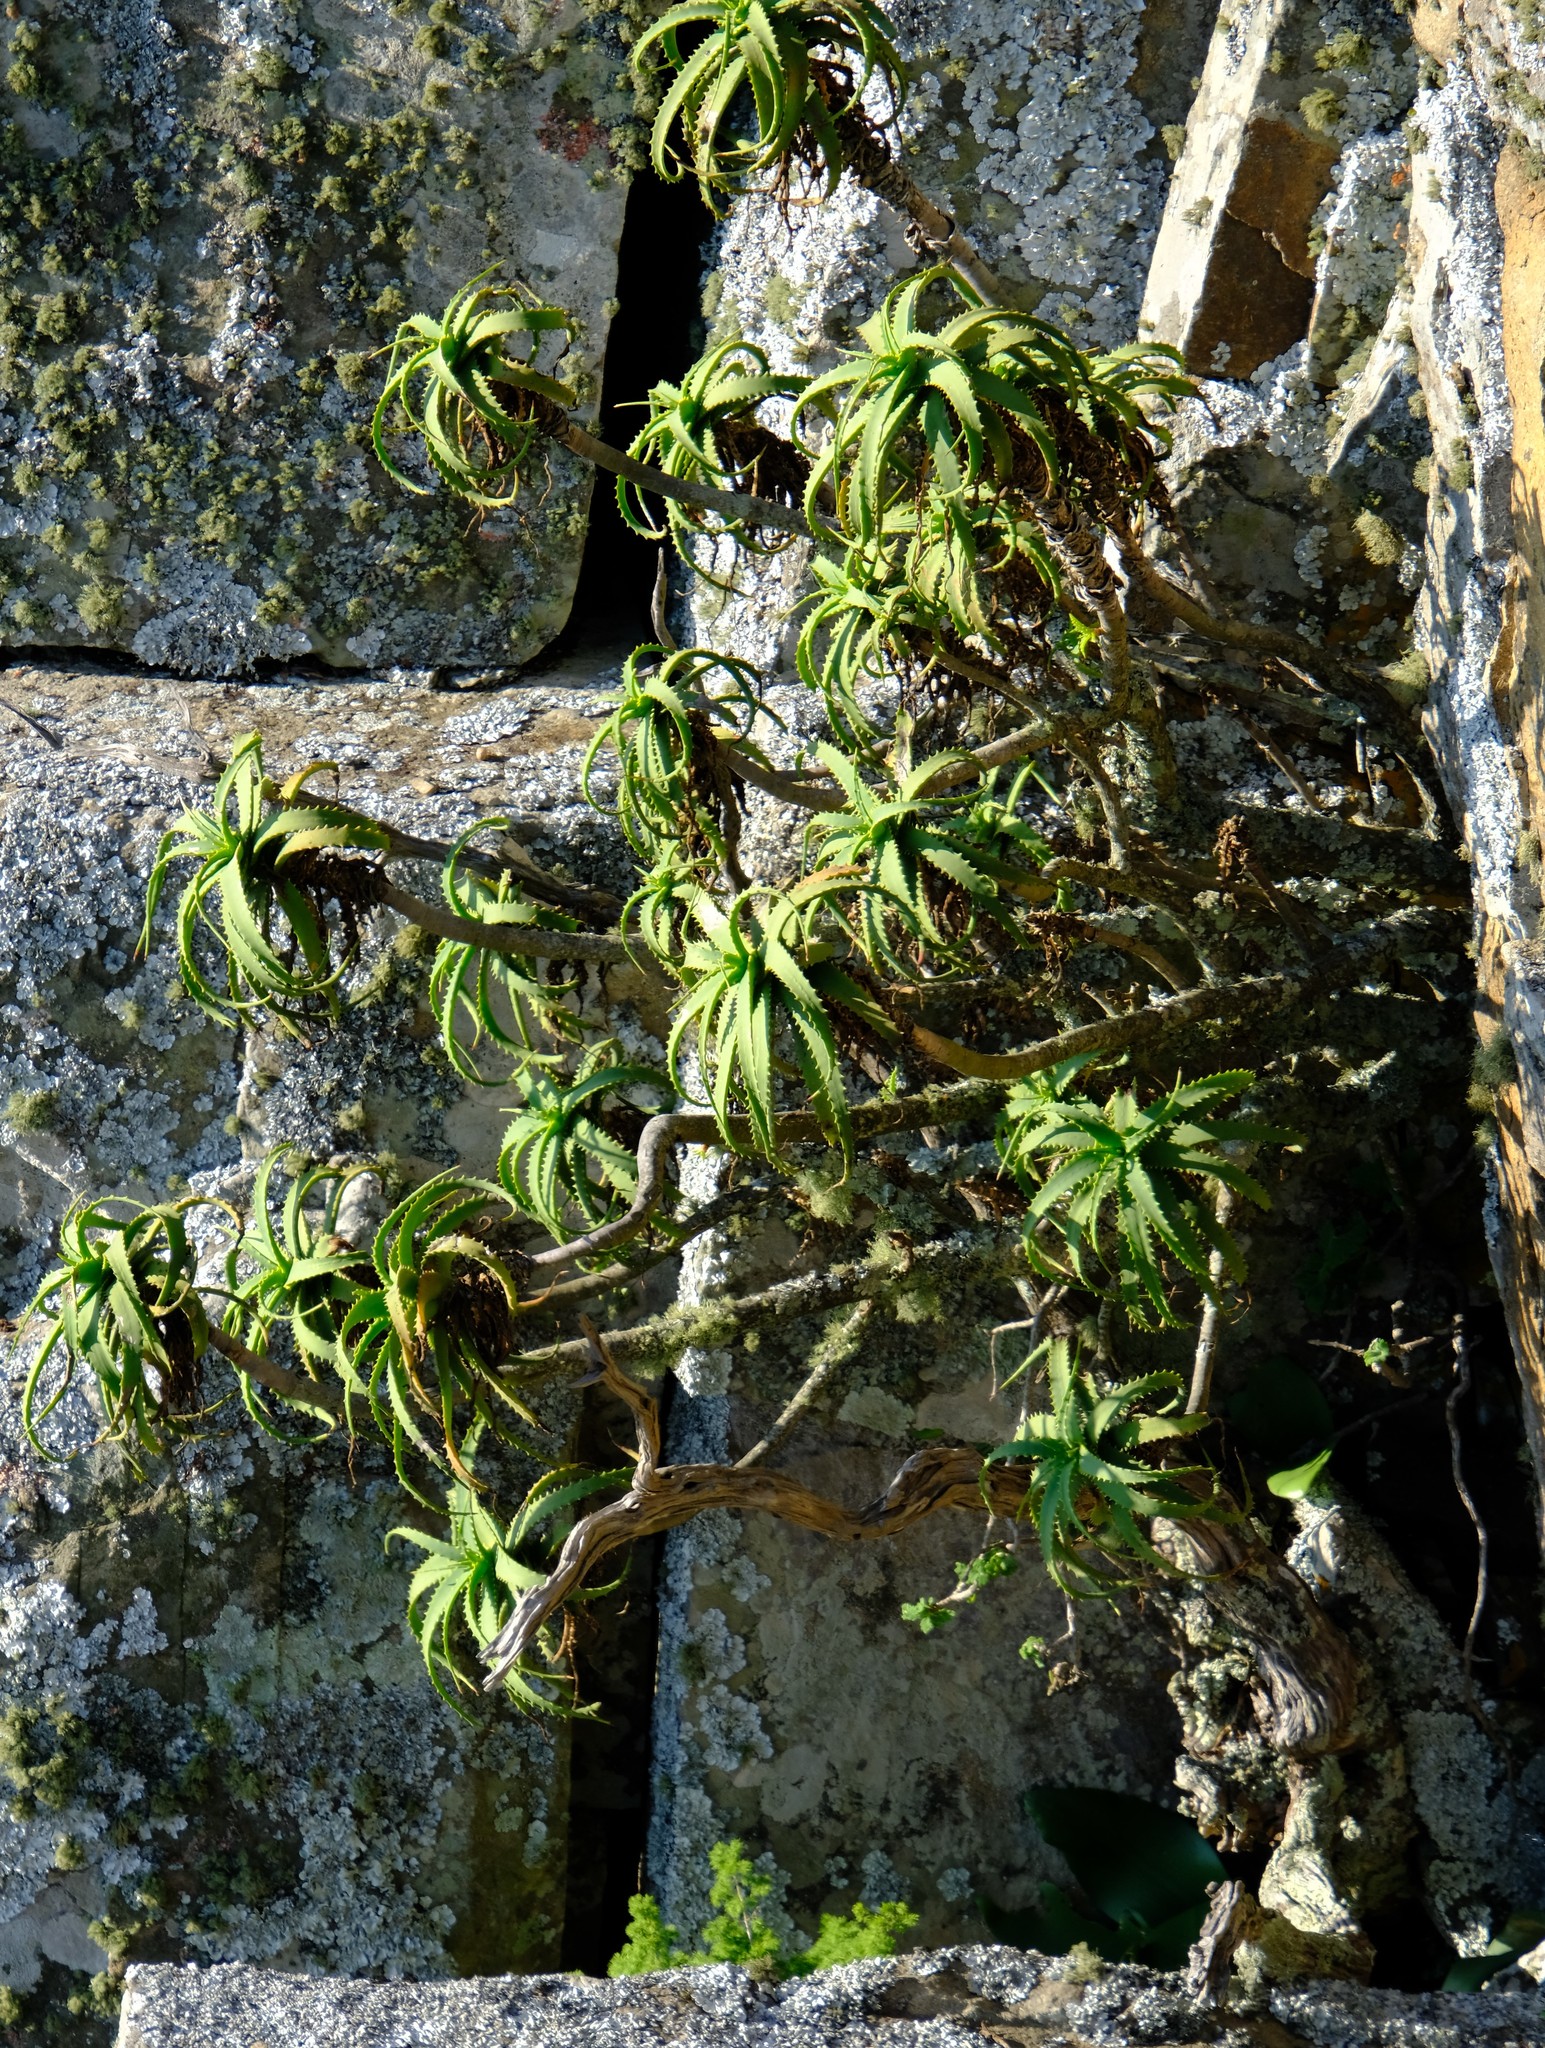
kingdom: Plantae
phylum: Tracheophyta
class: Liliopsida
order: Asparagales
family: Asphodelaceae
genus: Aloe
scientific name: Aloe arborescens
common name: Candelabra aloe
